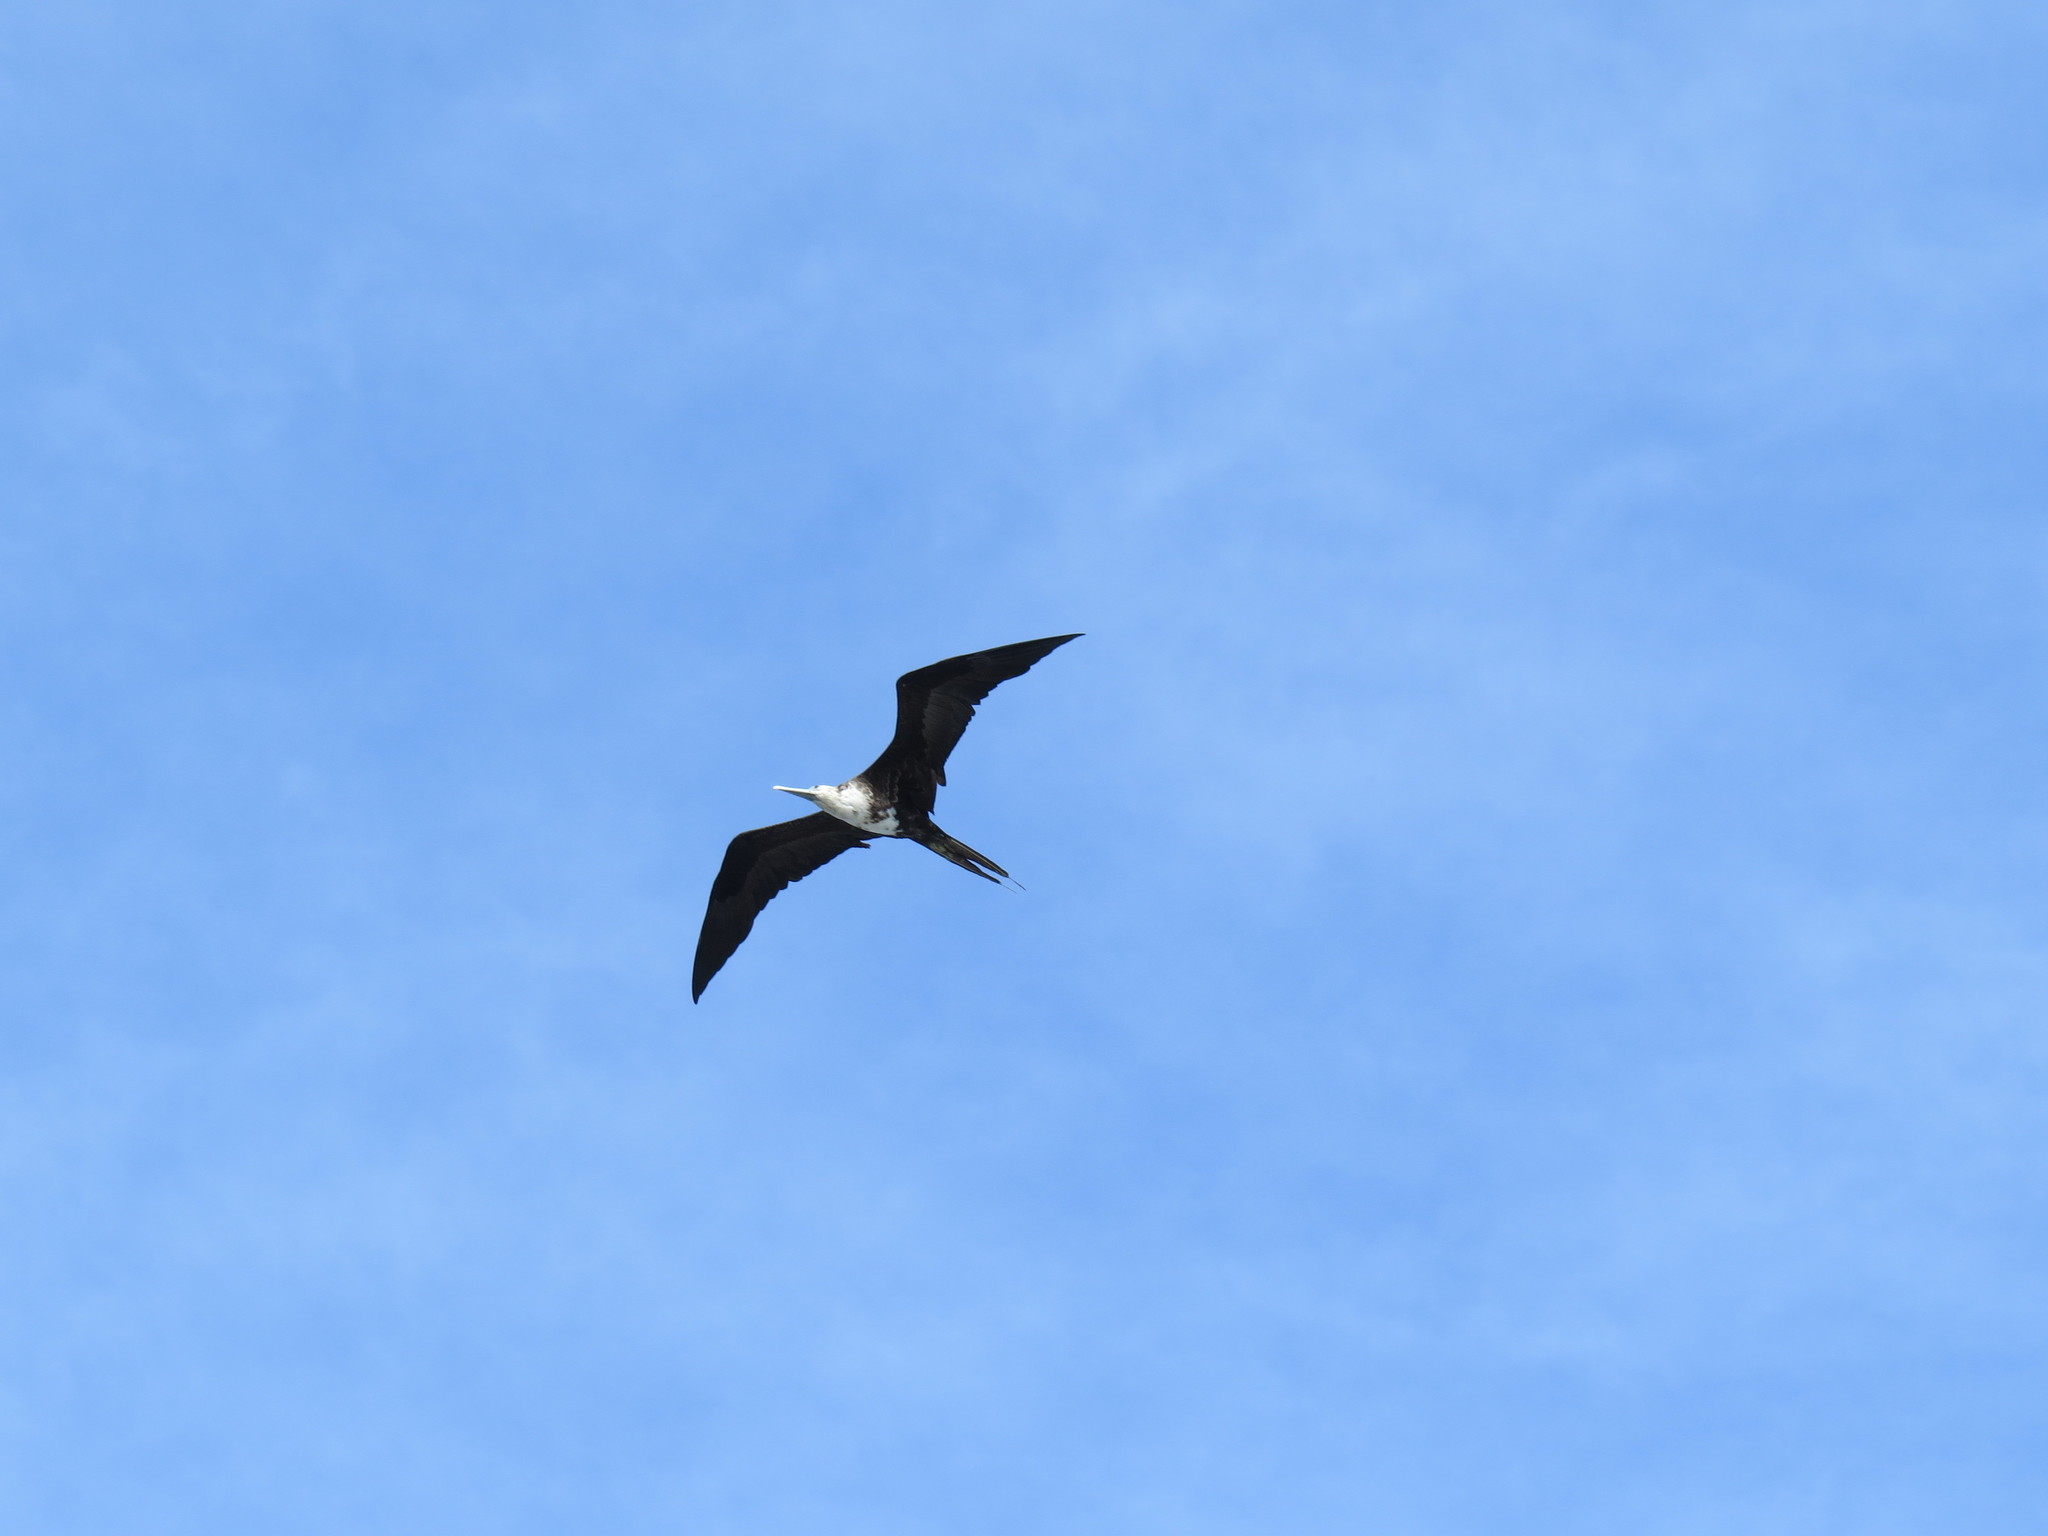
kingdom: Animalia
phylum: Chordata
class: Aves
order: Suliformes
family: Fregatidae
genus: Fregata
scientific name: Fregata magnificens
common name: Magnificent frigatebird
